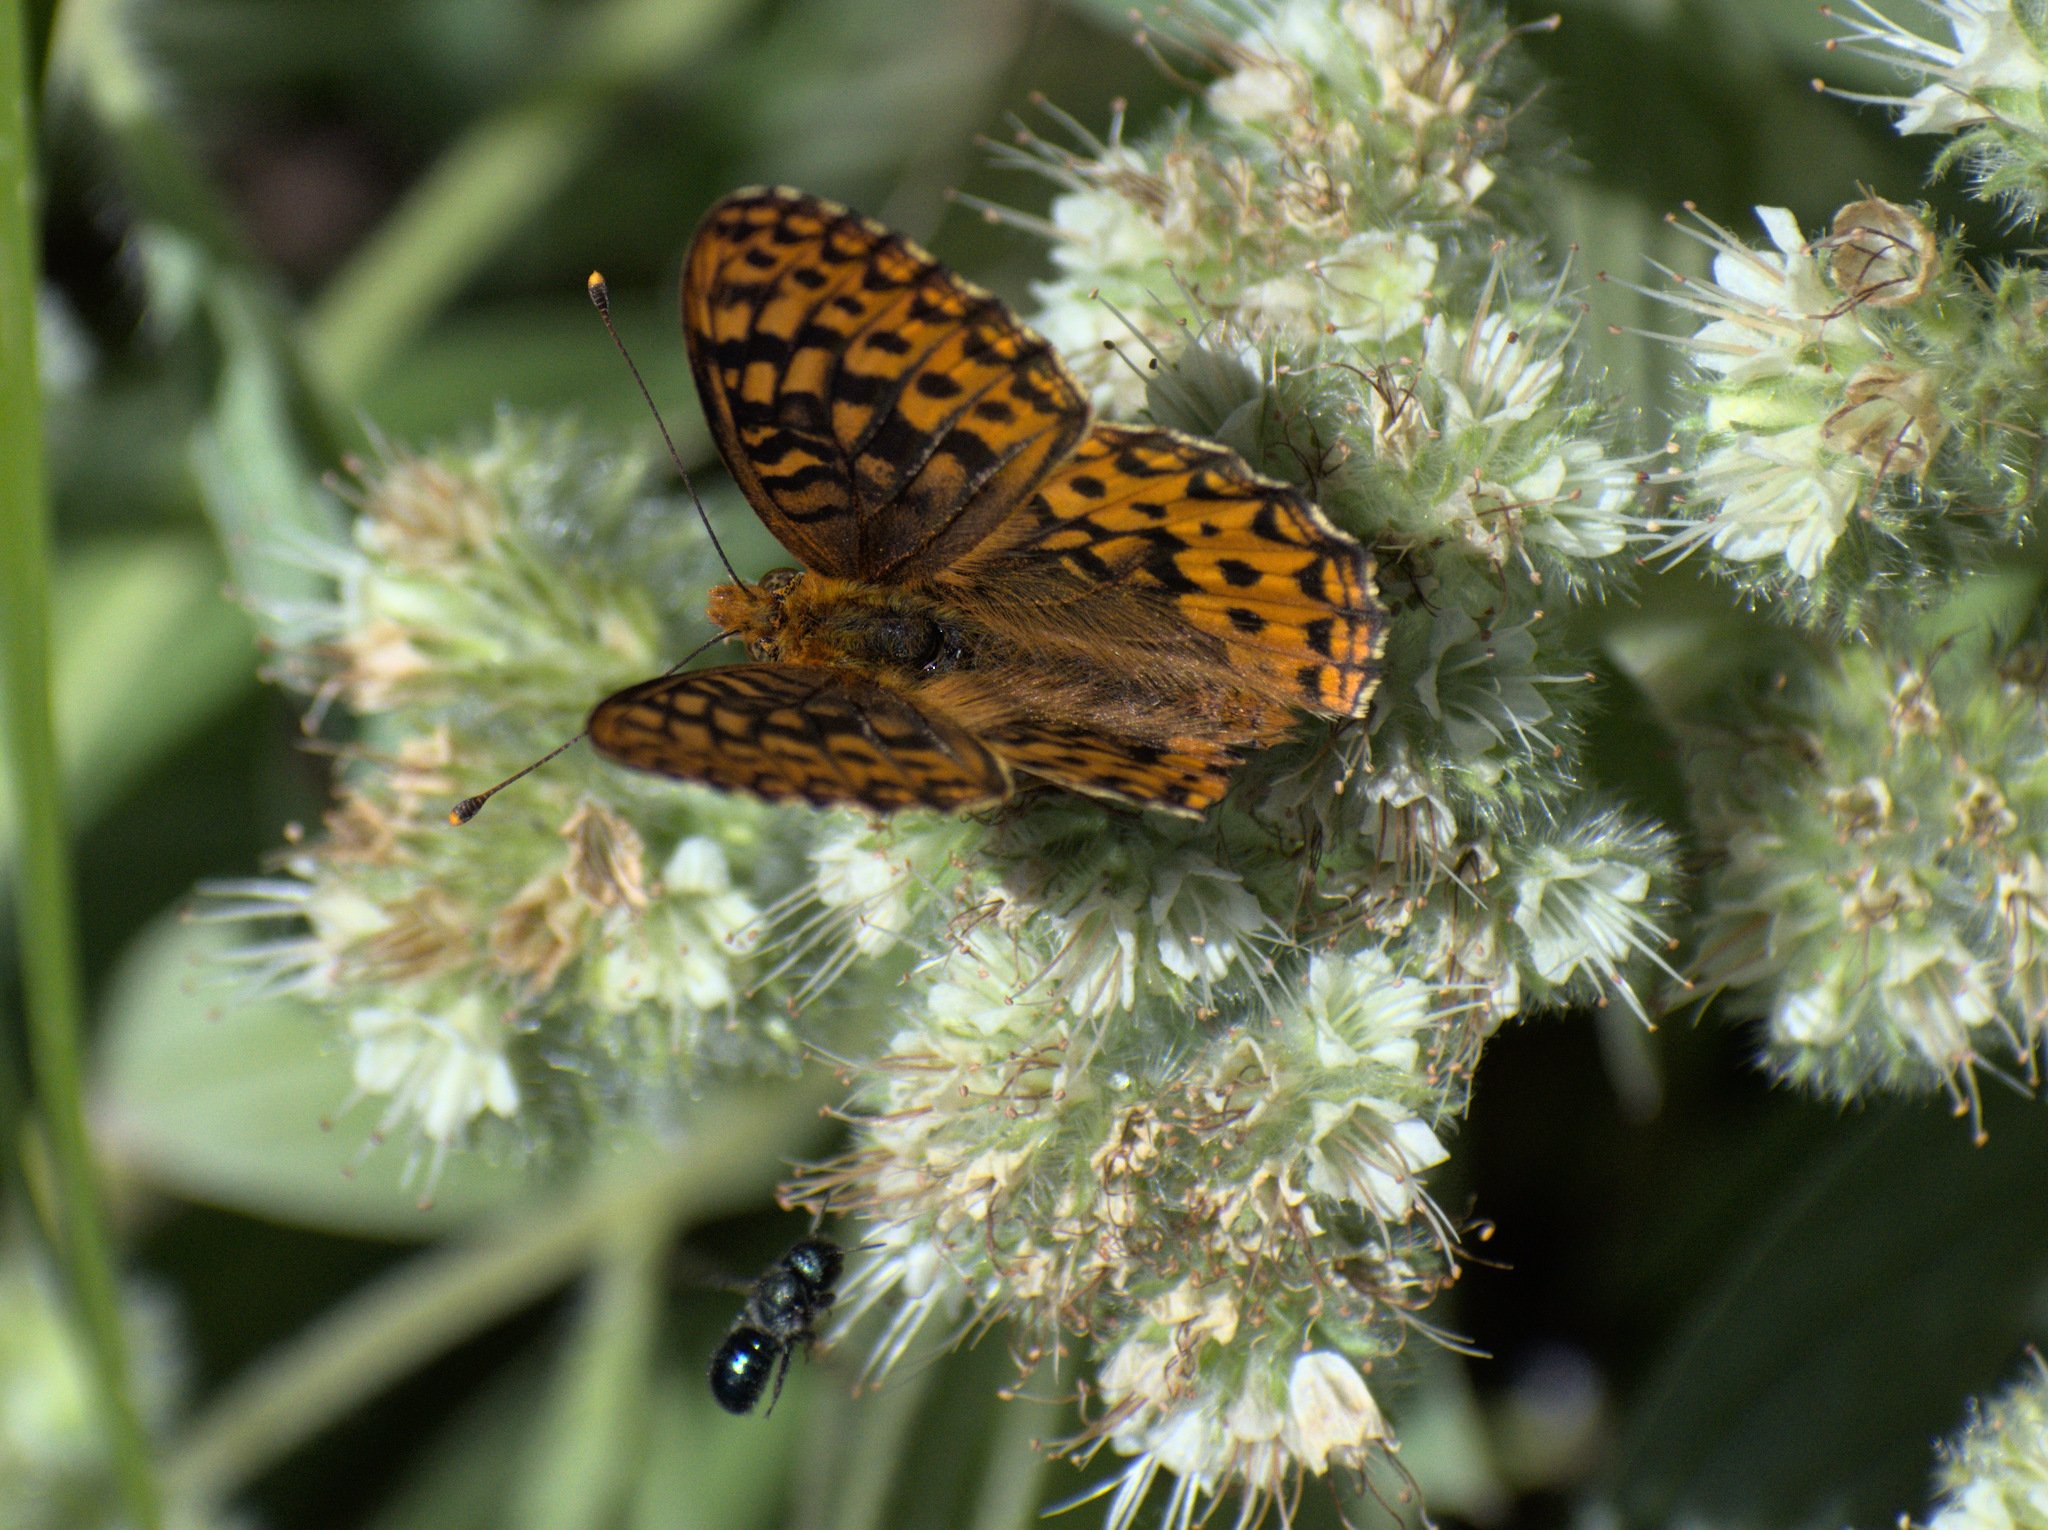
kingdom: Animalia
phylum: Arthropoda
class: Insecta
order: Lepidoptera
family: Nymphalidae
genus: Speyeria
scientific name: Speyeria hydaspe
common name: Hydaspe fritillary
